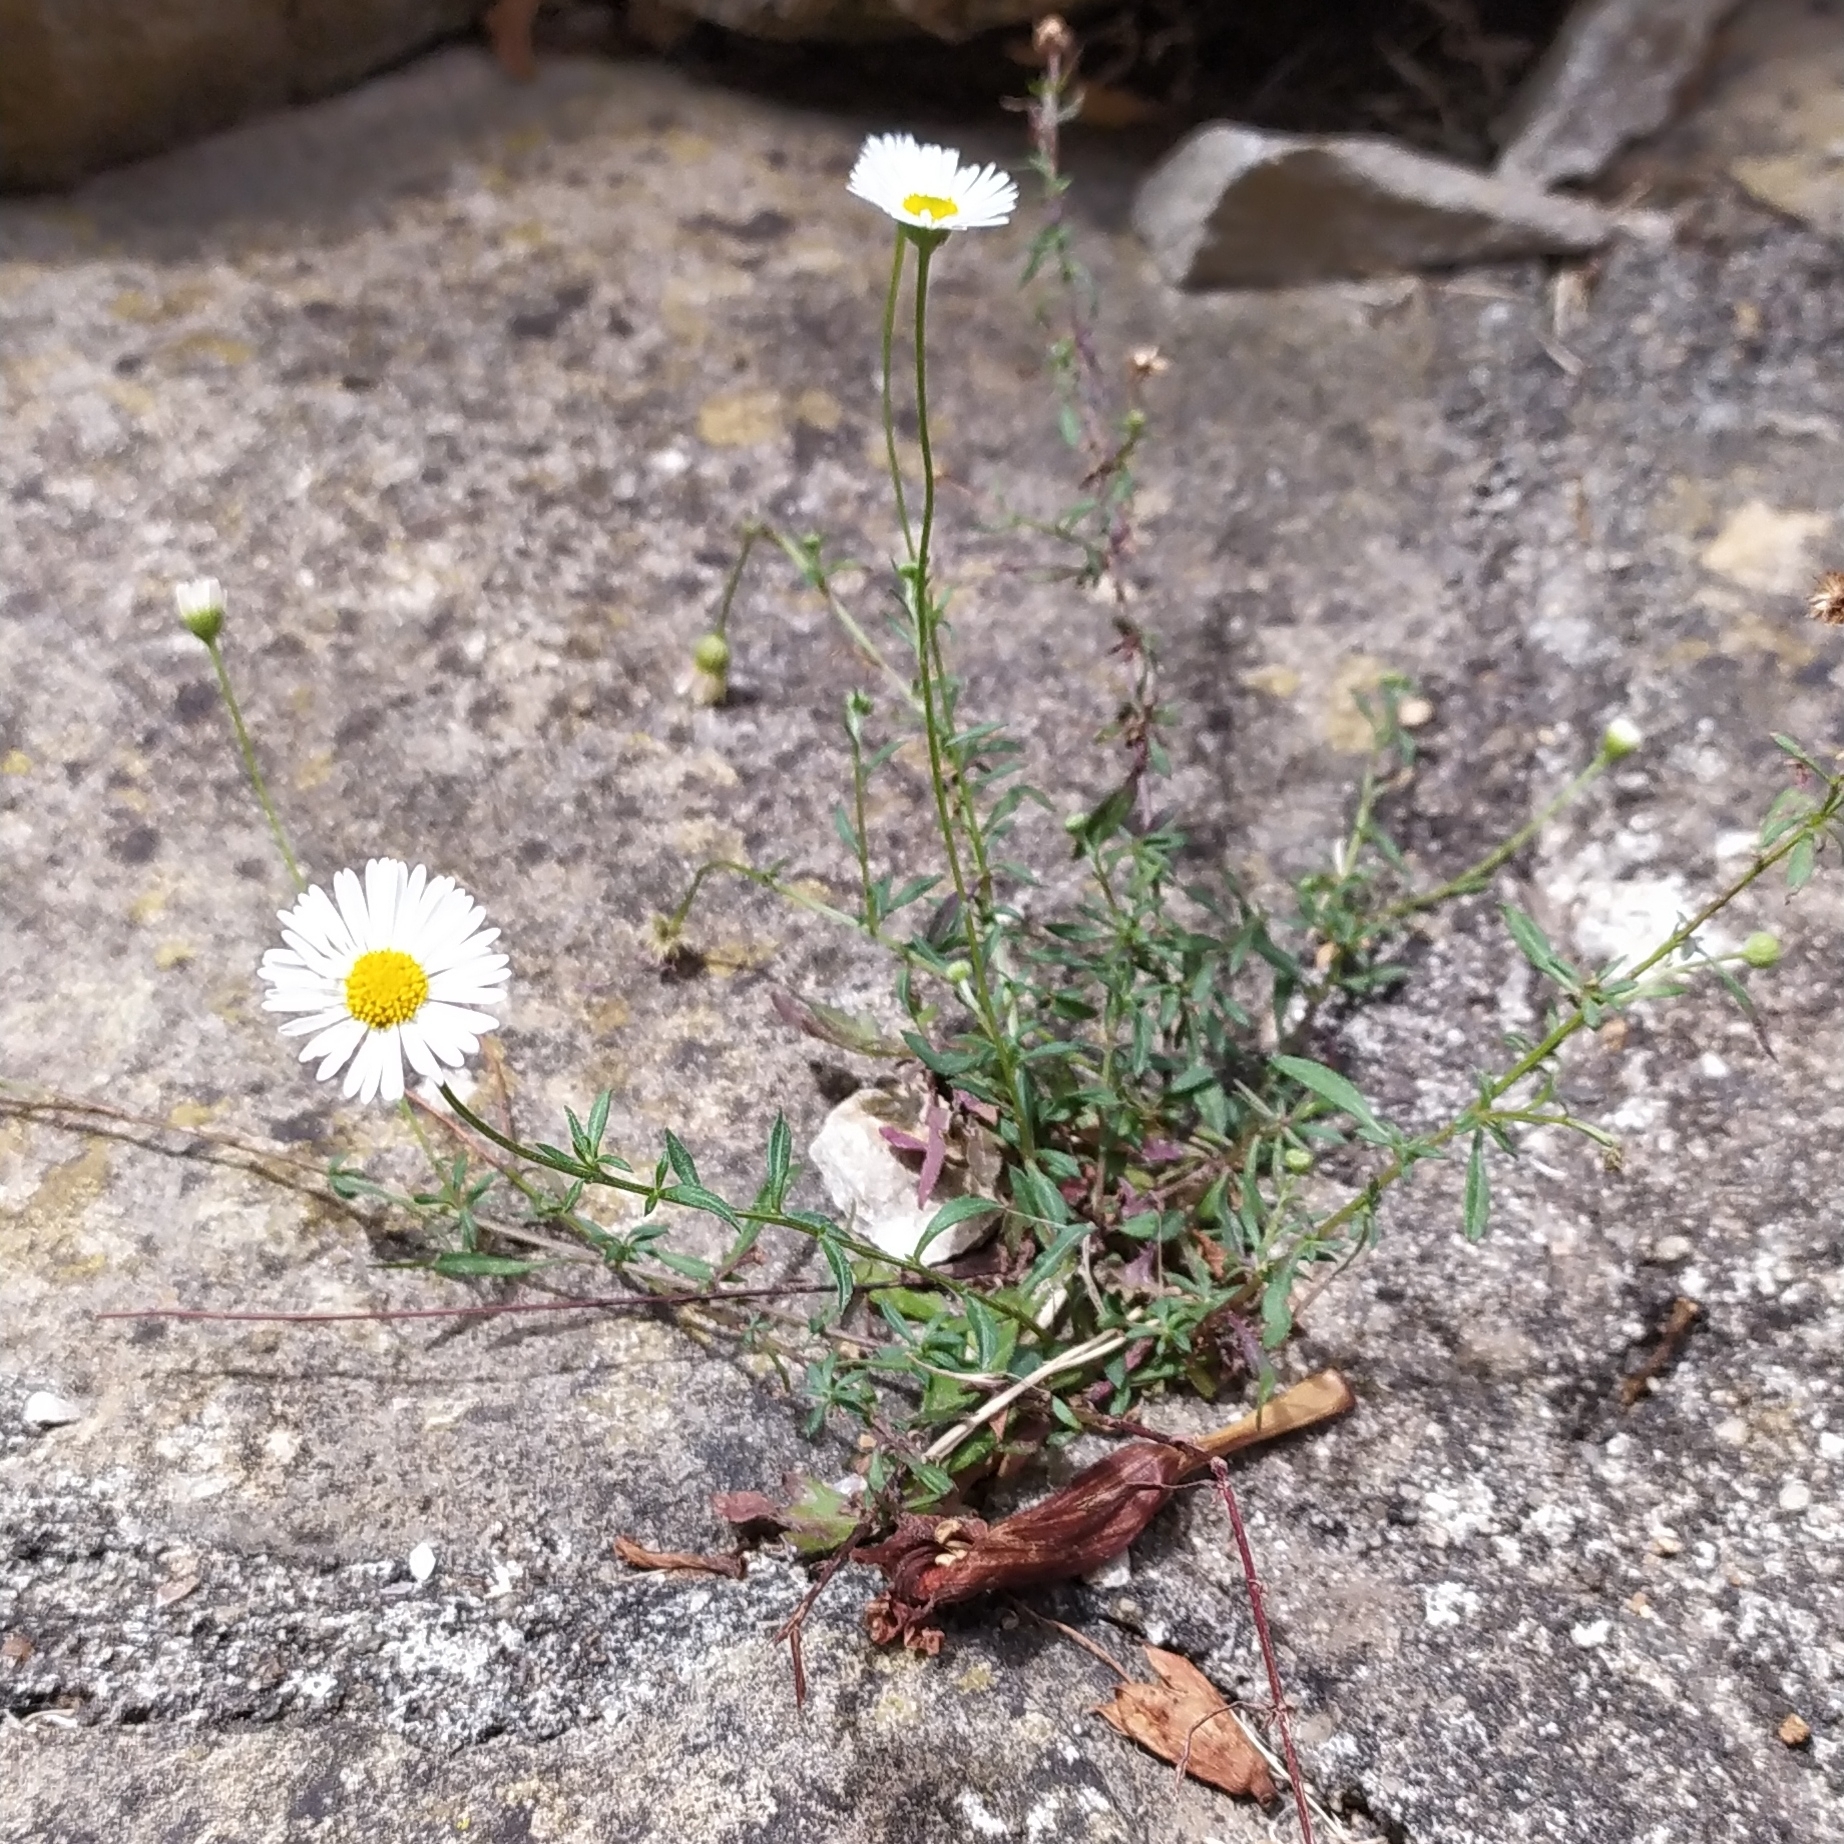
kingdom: Plantae
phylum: Tracheophyta
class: Magnoliopsida
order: Asterales
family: Asteraceae
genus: Erigeron
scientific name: Erigeron karvinskianus
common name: Mexican fleabane
